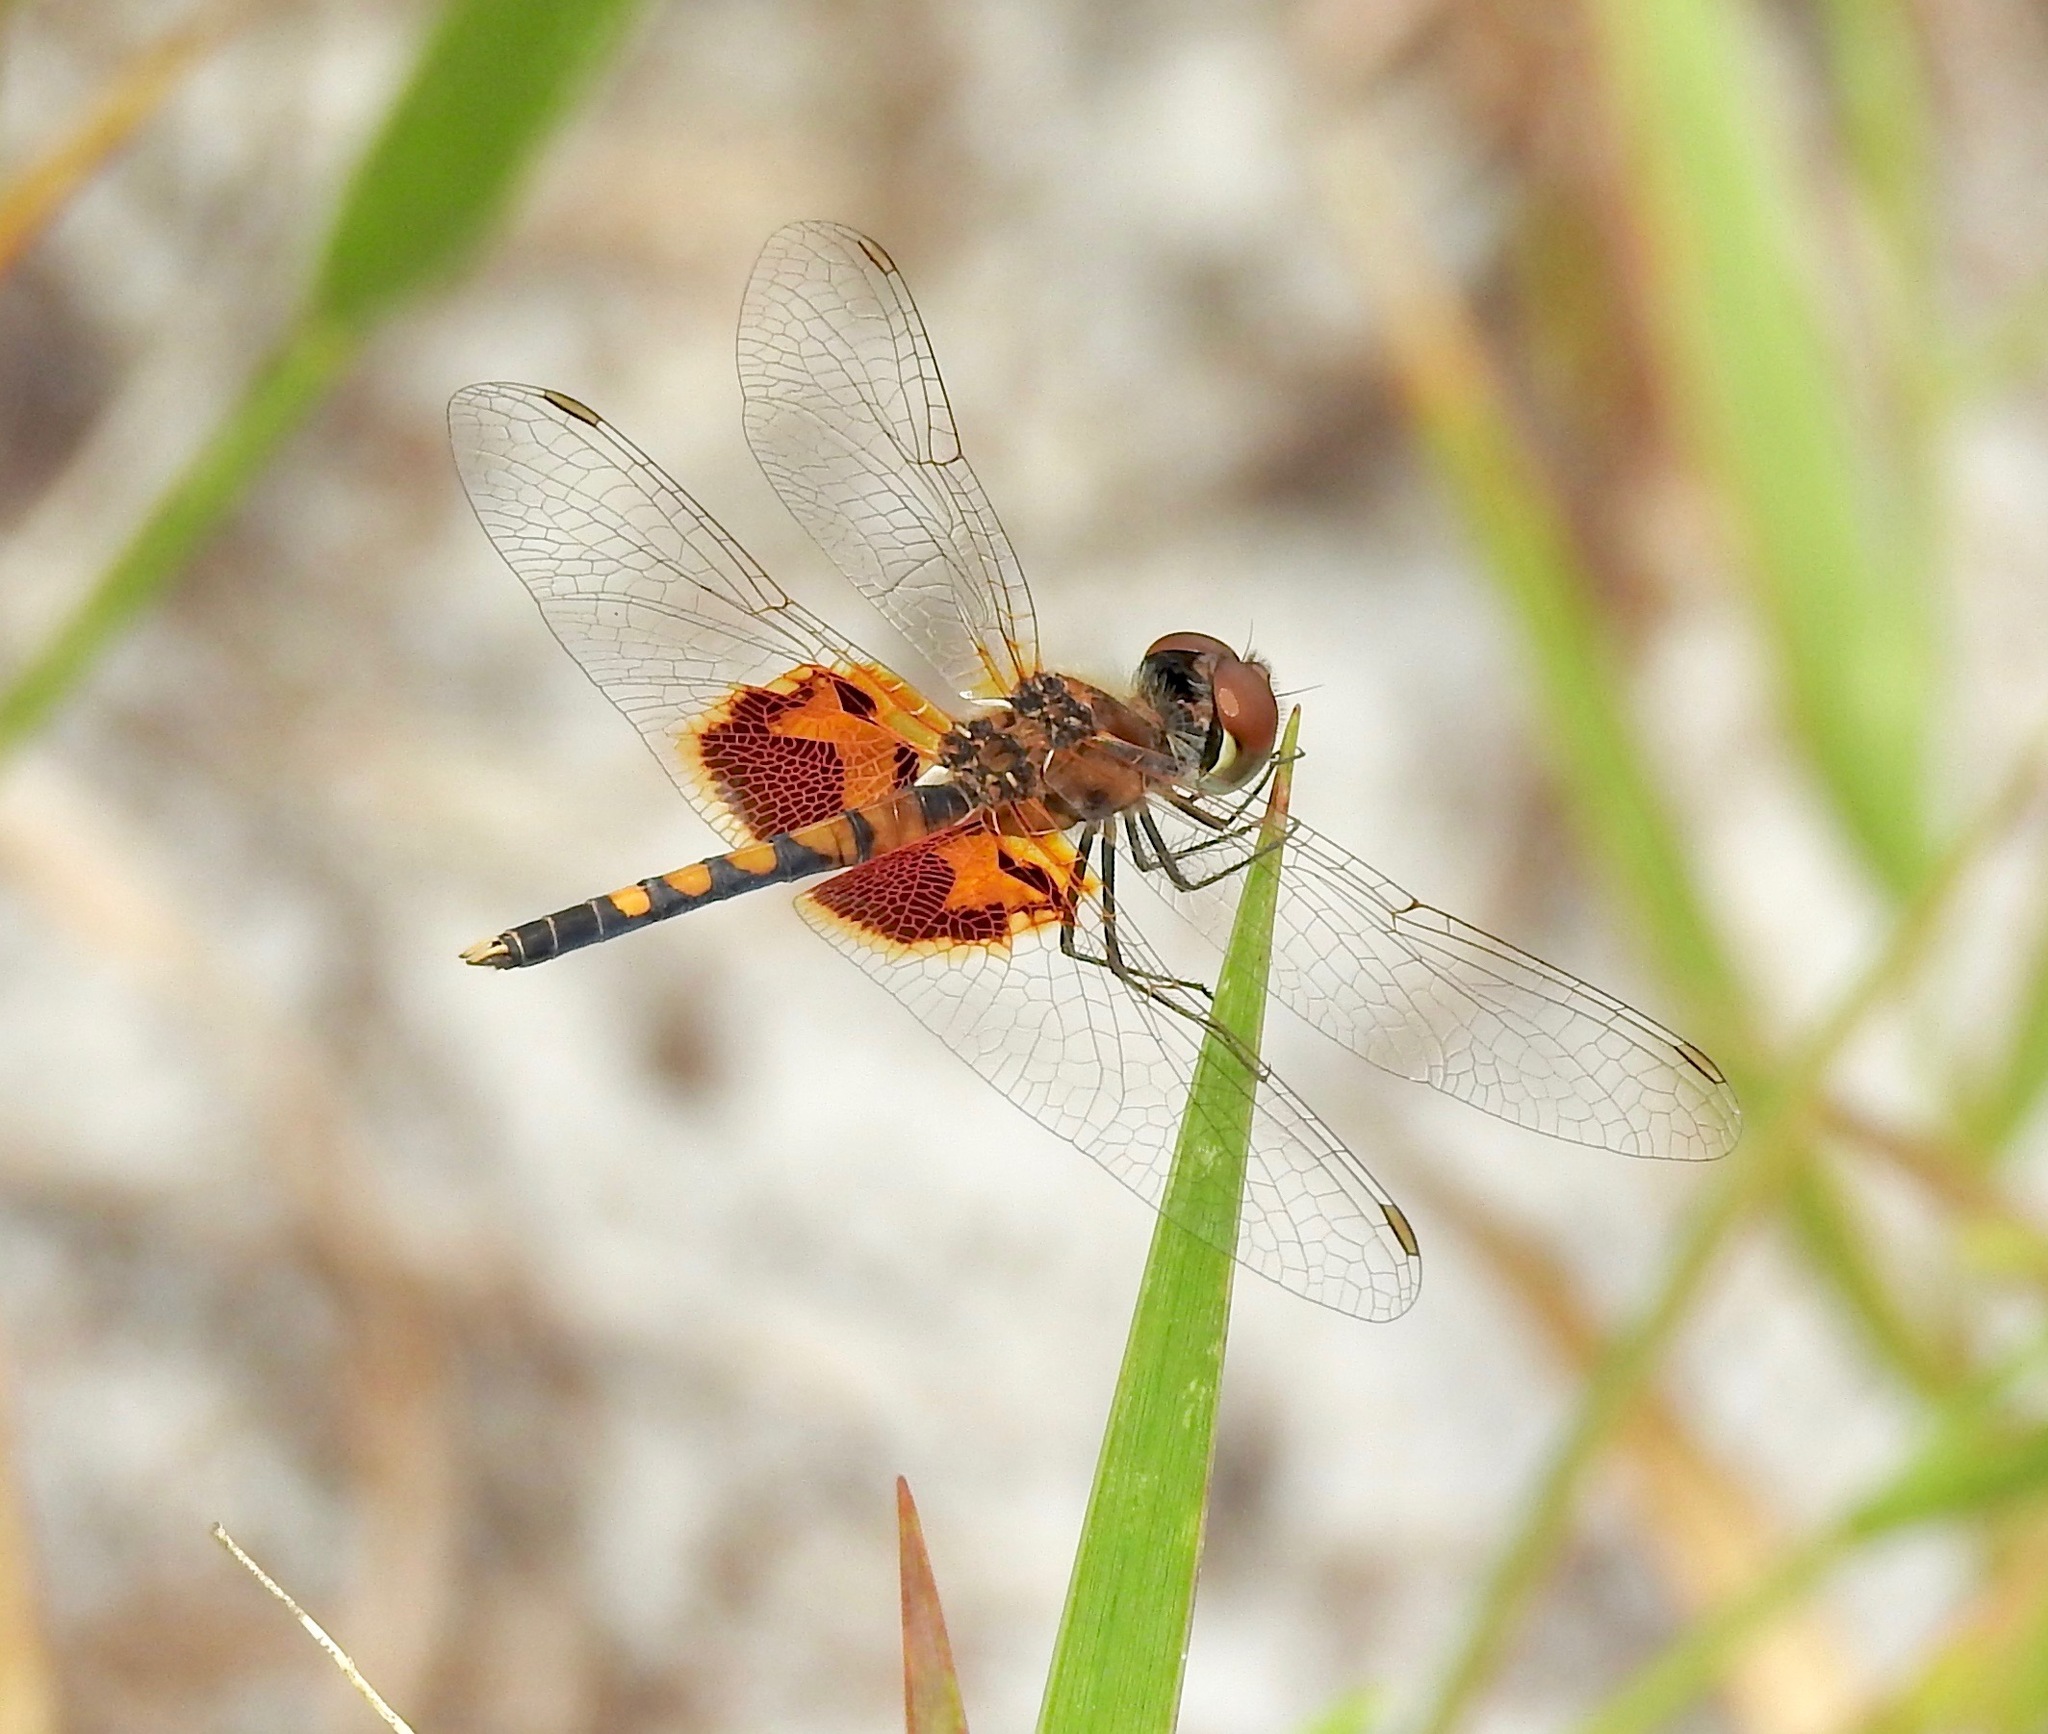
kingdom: Animalia
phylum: Arthropoda
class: Insecta
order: Odonata
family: Libellulidae
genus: Celithemis
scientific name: Celithemis amanda
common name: Amanda's pennant
